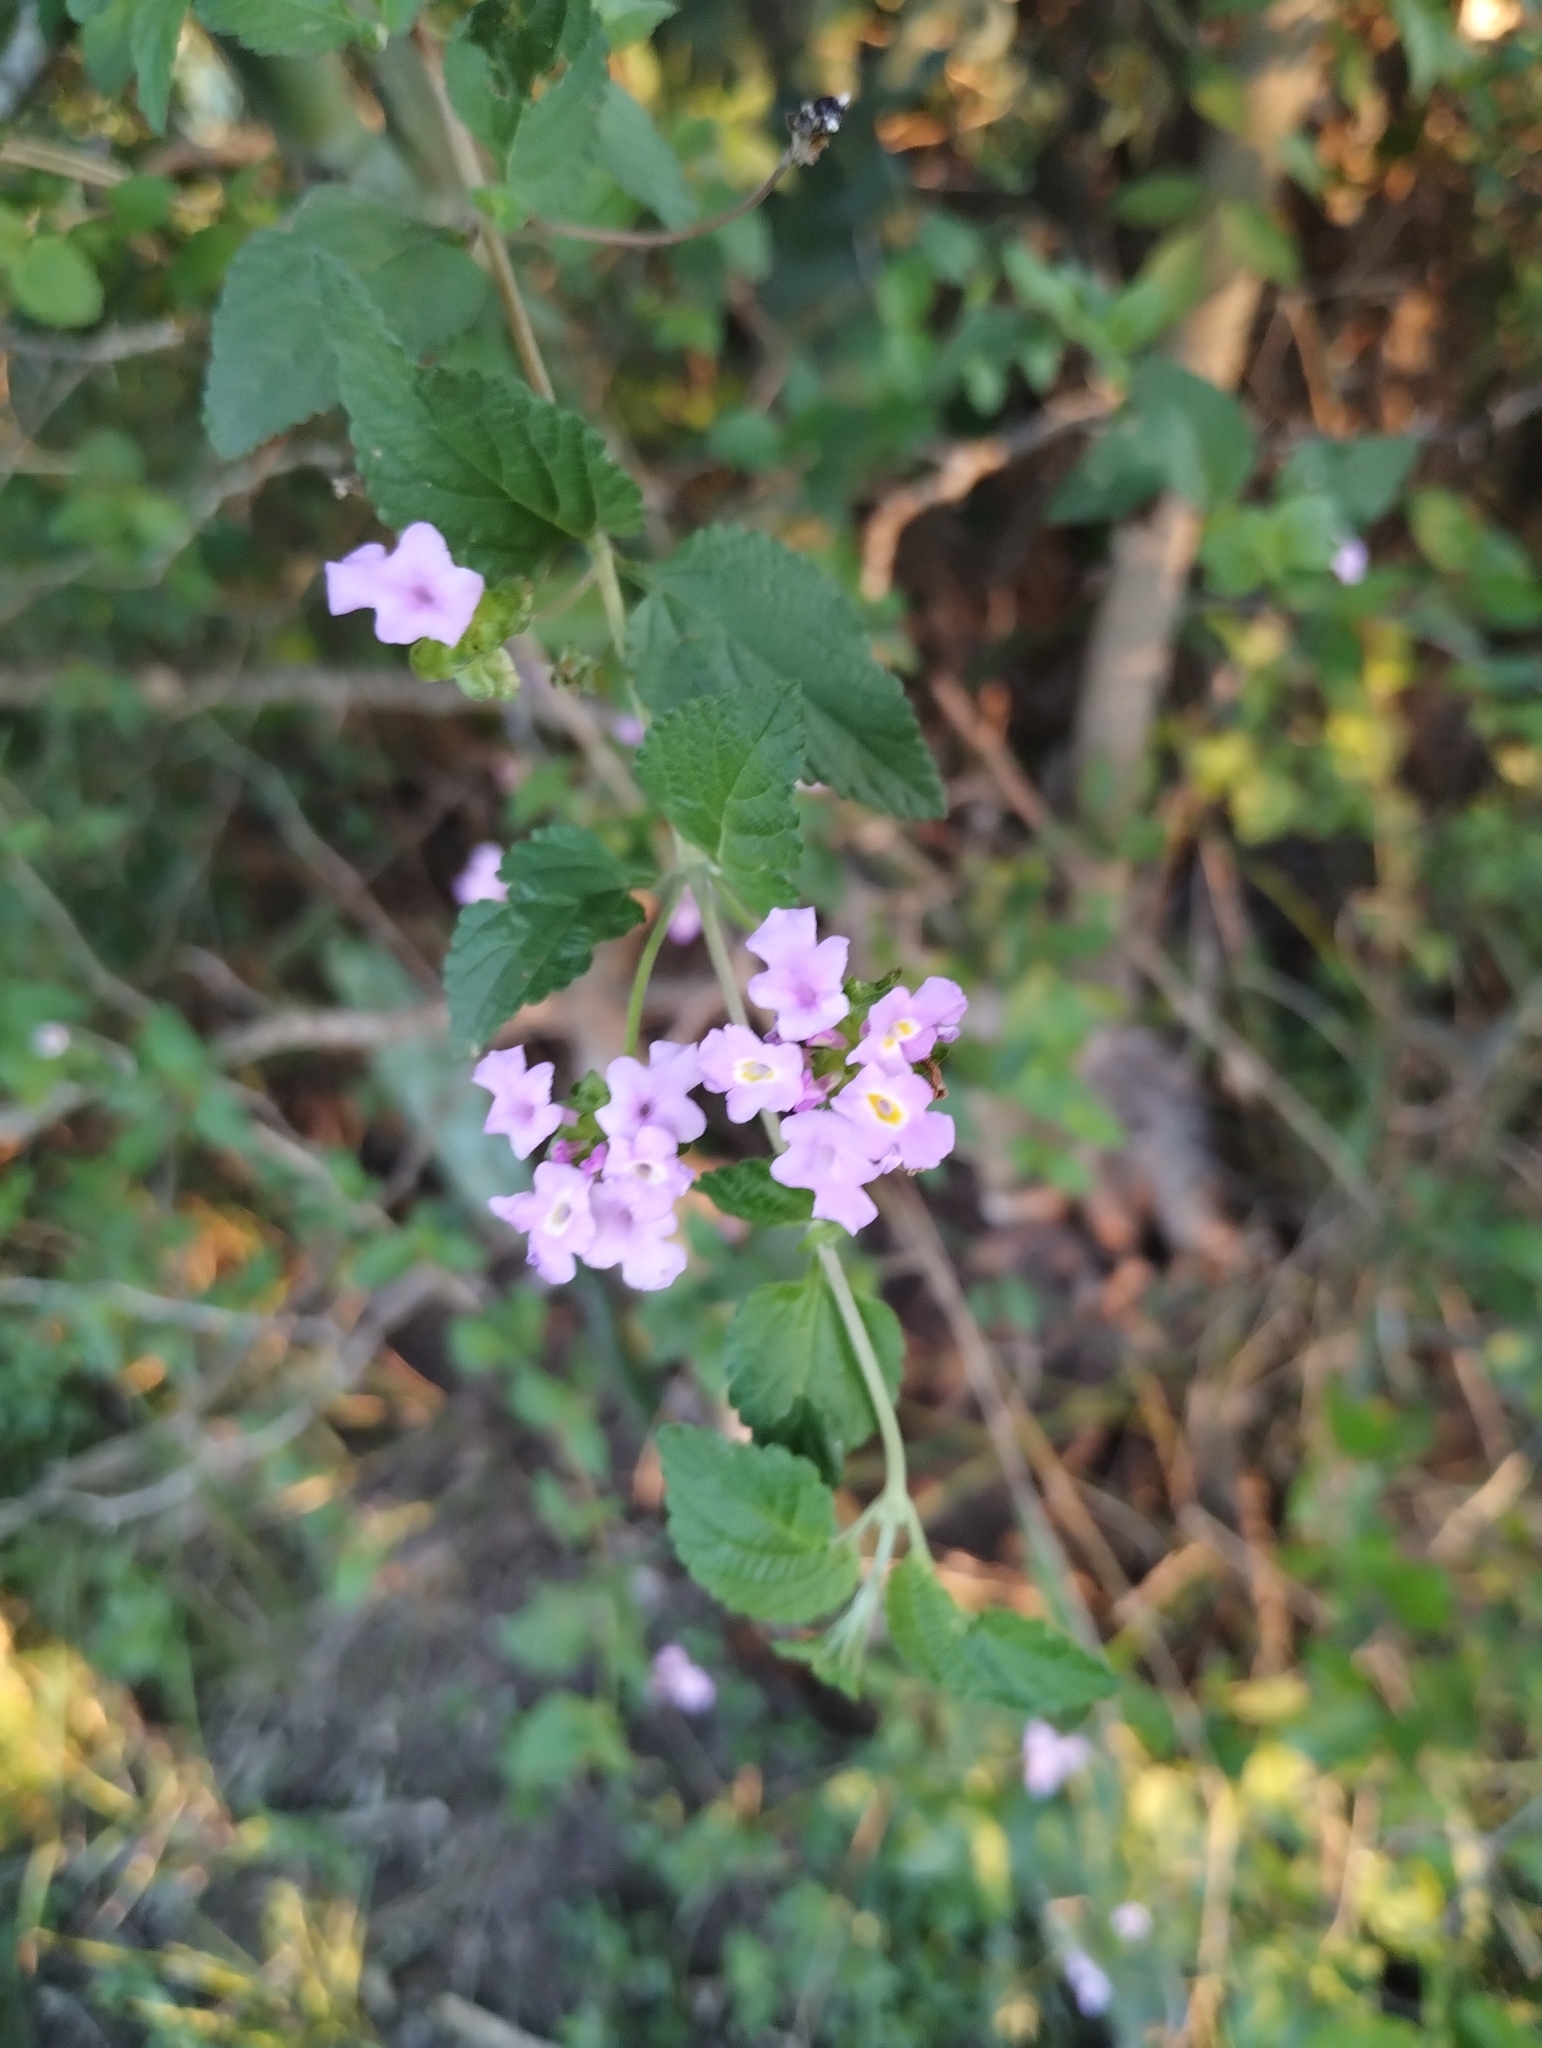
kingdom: Plantae
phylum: Tracheophyta
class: Magnoliopsida
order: Lamiales
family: Verbenaceae
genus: Lantana
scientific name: Lantana megapotamica
